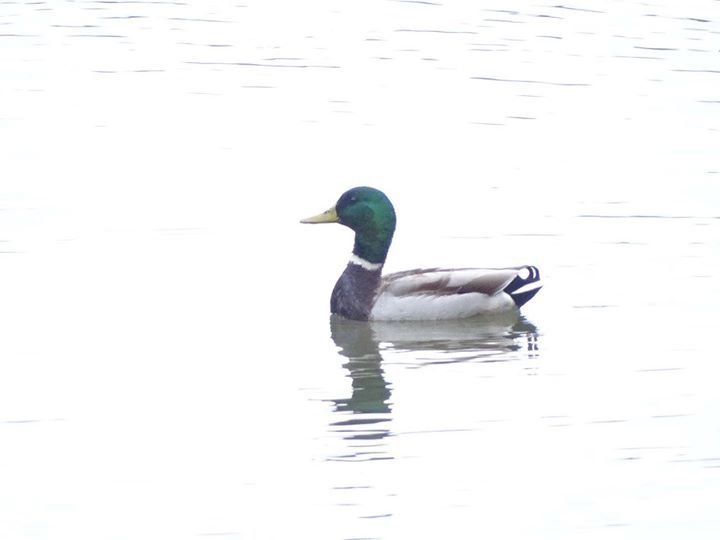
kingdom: Animalia
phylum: Chordata
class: Aves
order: Anseriformes
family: Anatidae
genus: Anas
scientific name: Anas platyrhynchos
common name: Mallard
